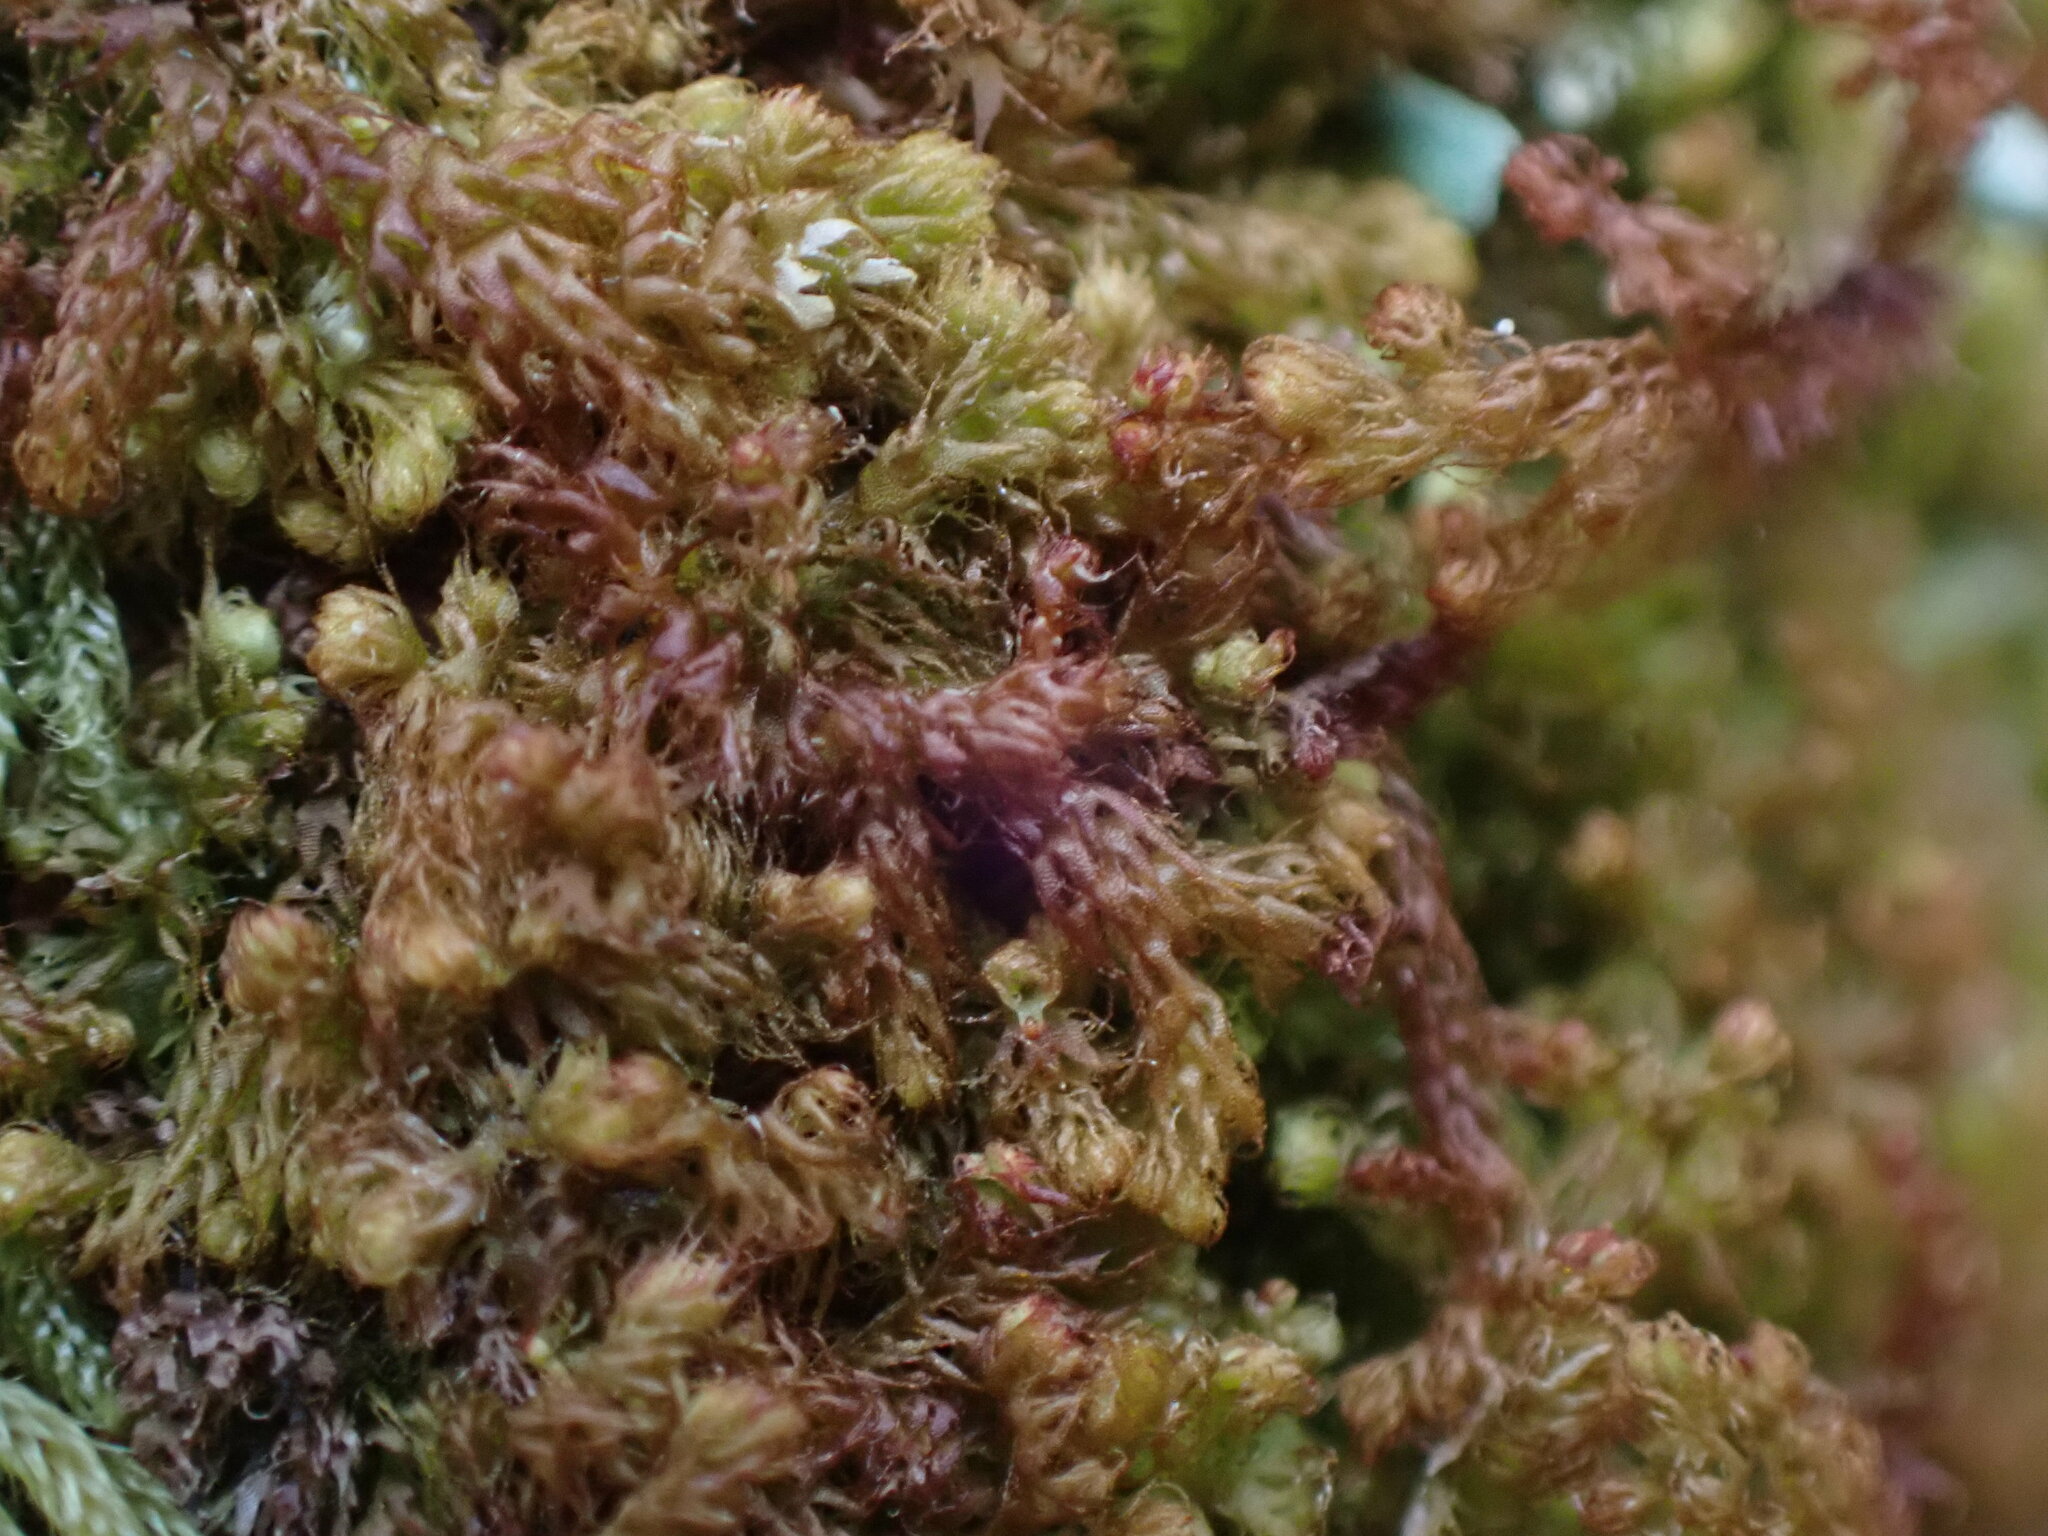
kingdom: Plantae
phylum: Marchantiophyta
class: Jungermanniopsida
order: Ptilidiales
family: Ptilidiaceae
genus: Ptilidium
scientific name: Ptilidium californicum
